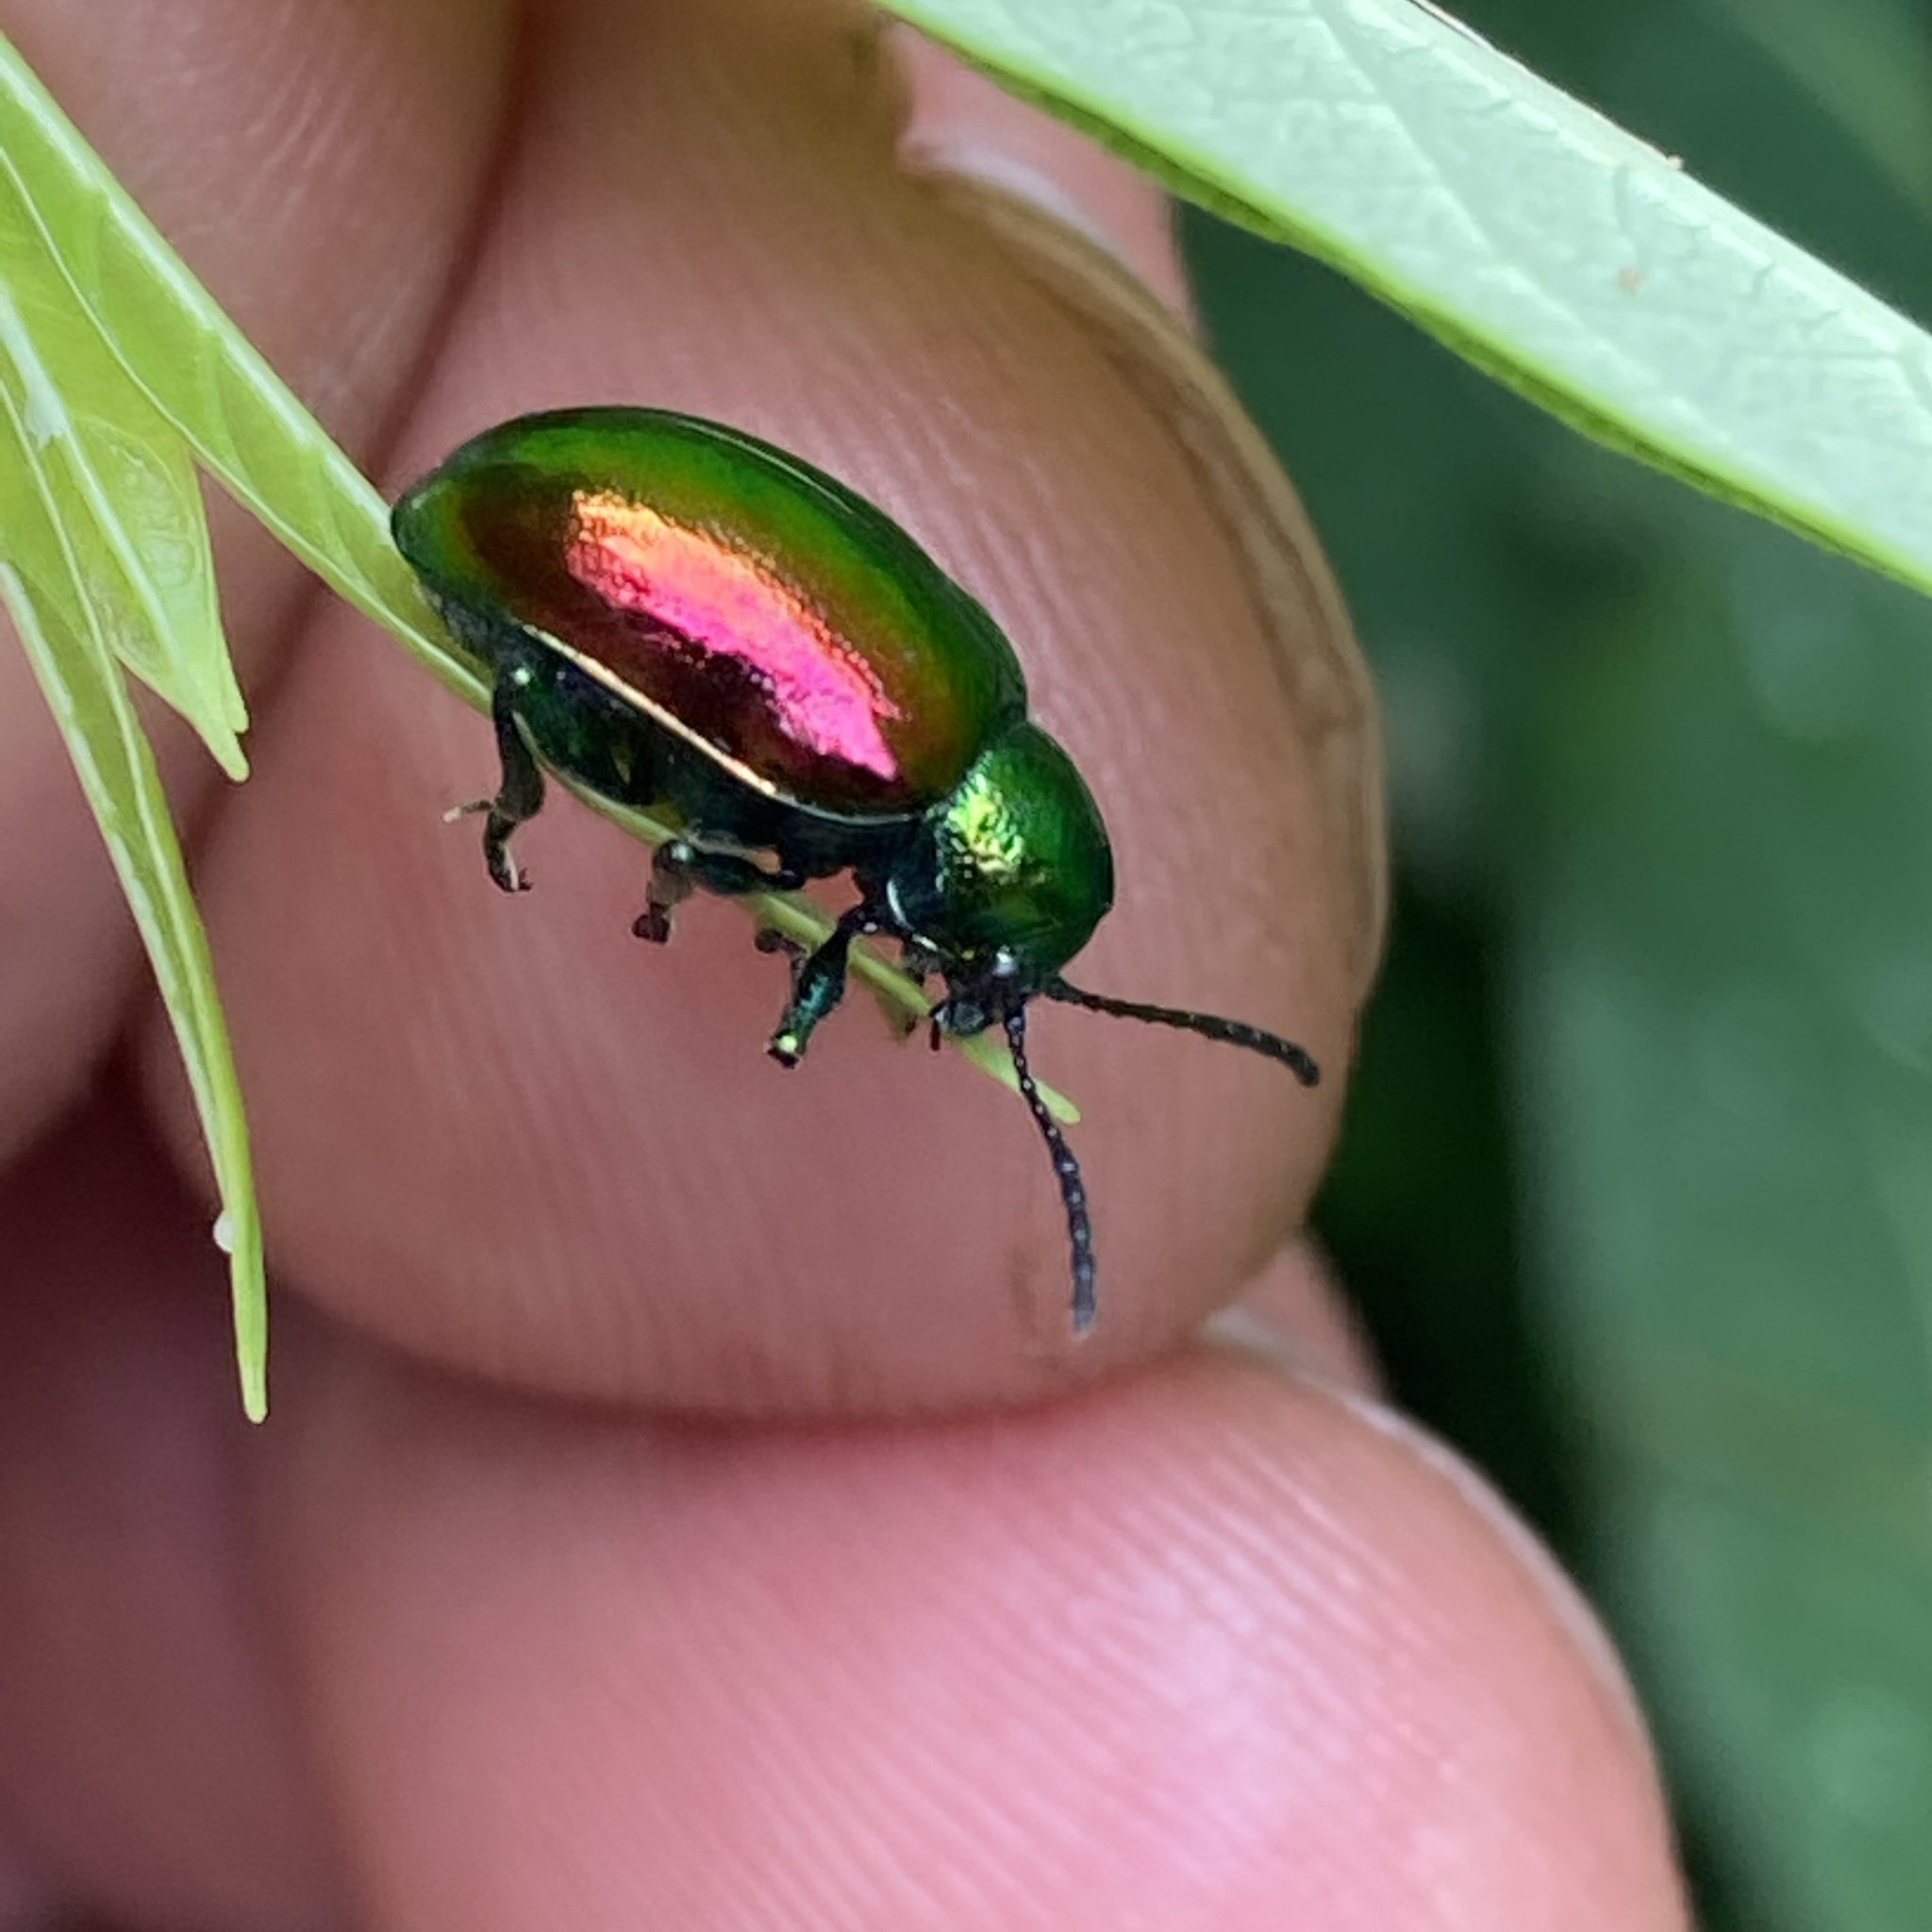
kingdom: Animalia
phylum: Arthropoda
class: Insecta
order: Coleoptera
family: Chrysomelidae
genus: Chrysochus
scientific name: Chrysochus auratus
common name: Dogbane leaf beetle
